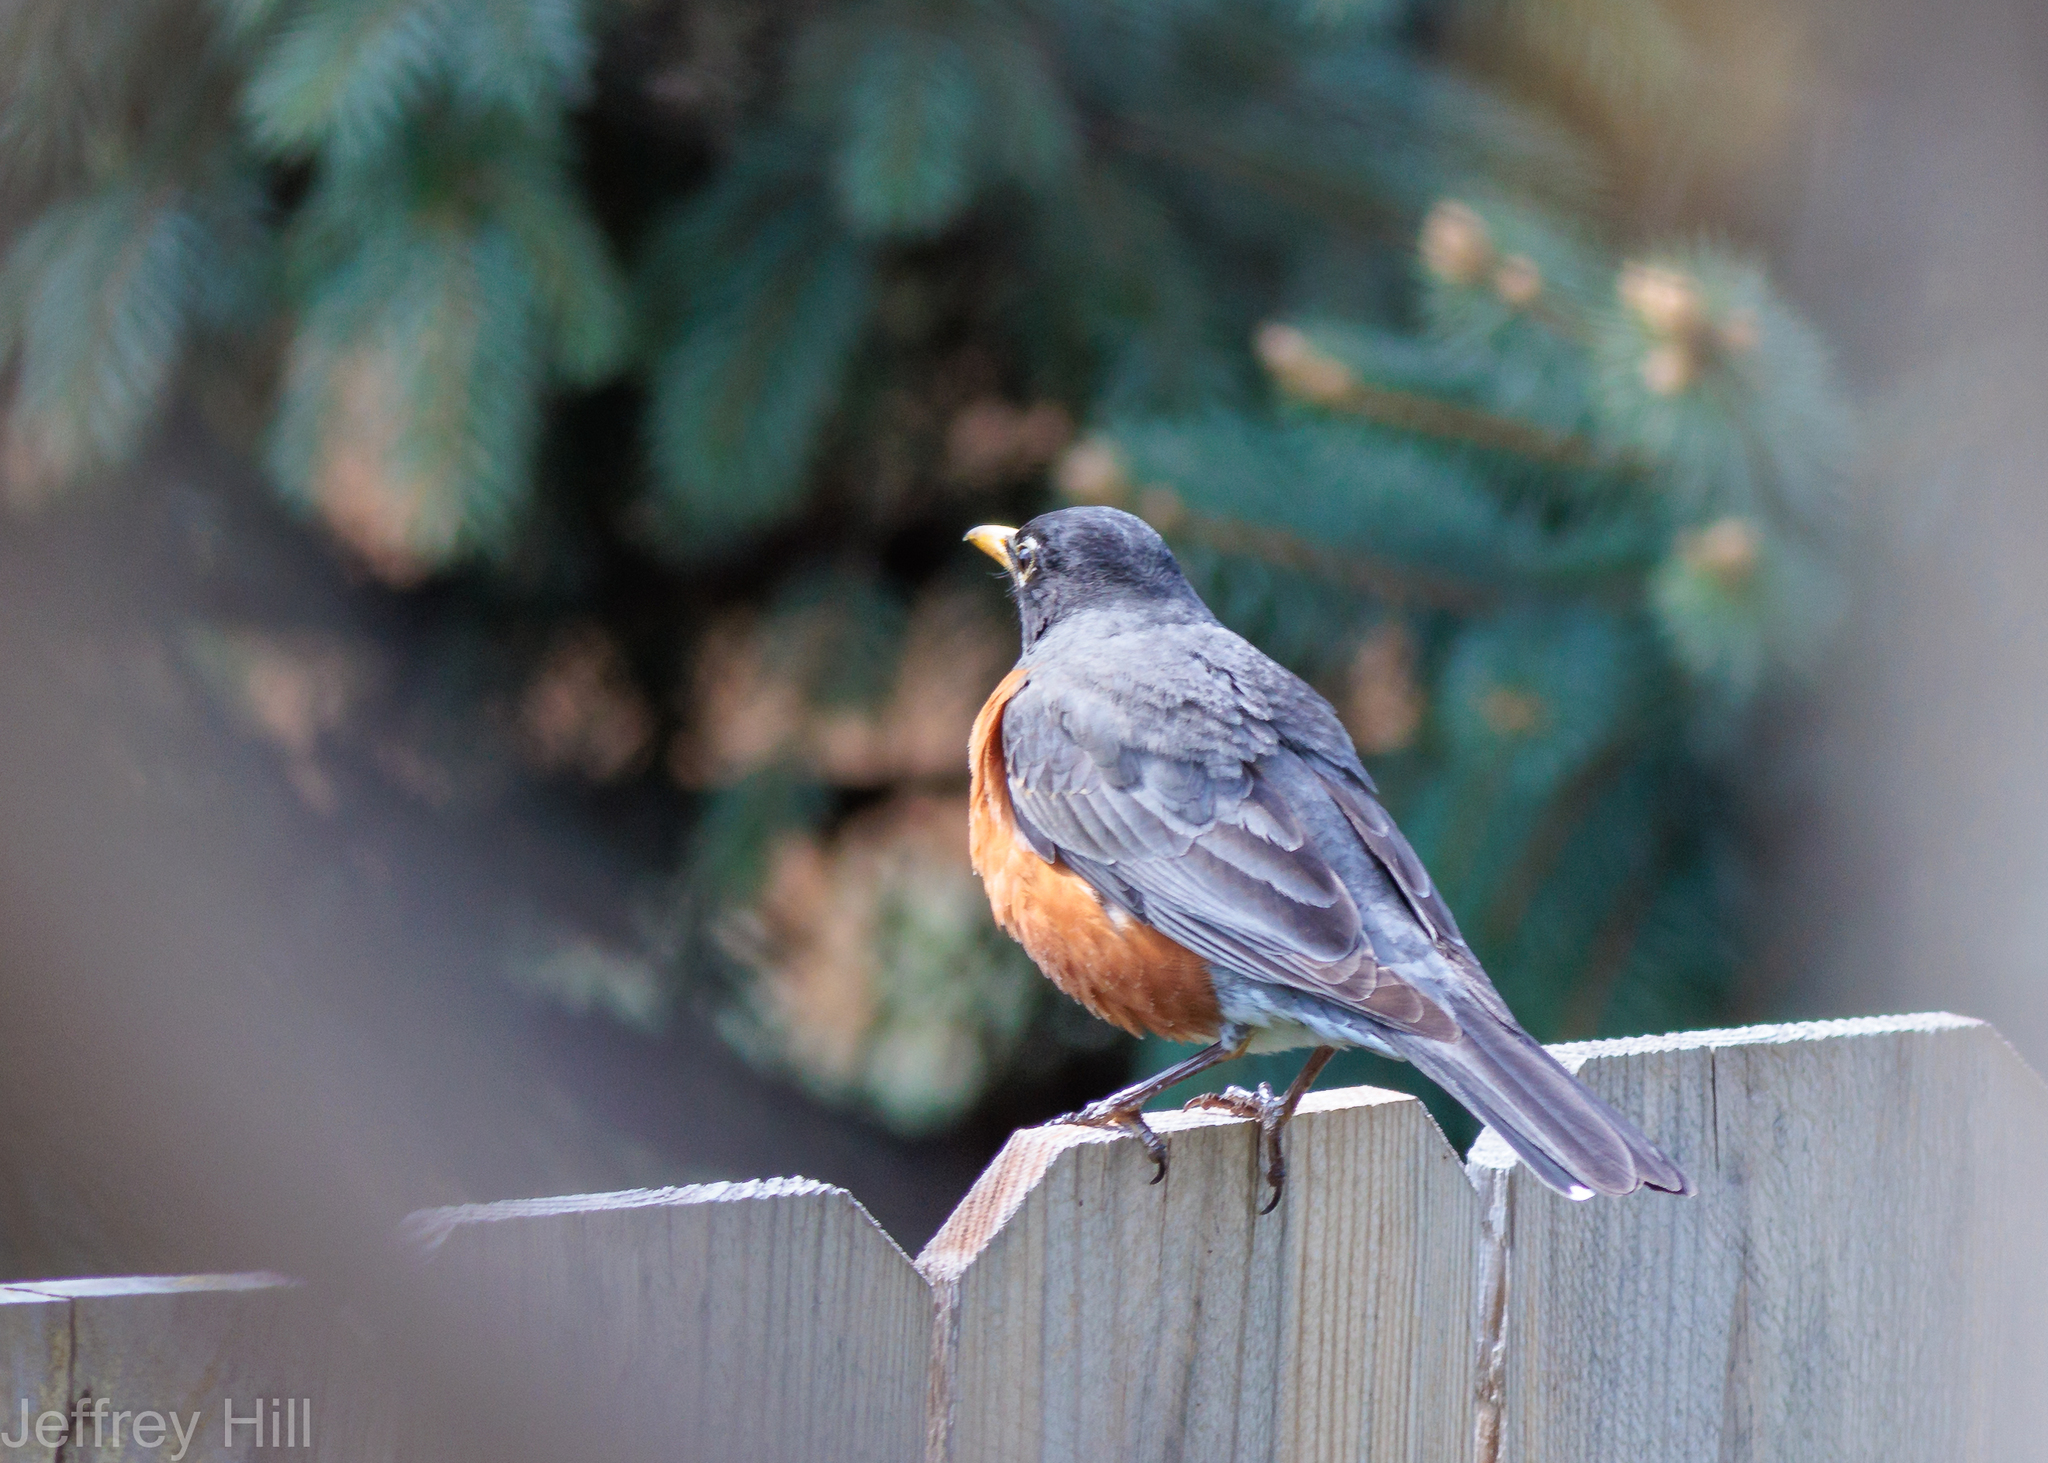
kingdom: Animalia
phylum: Chordata
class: Aves
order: Passeriformes
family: Turdidae
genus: Turdus
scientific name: Turdus migratorius
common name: American robin
